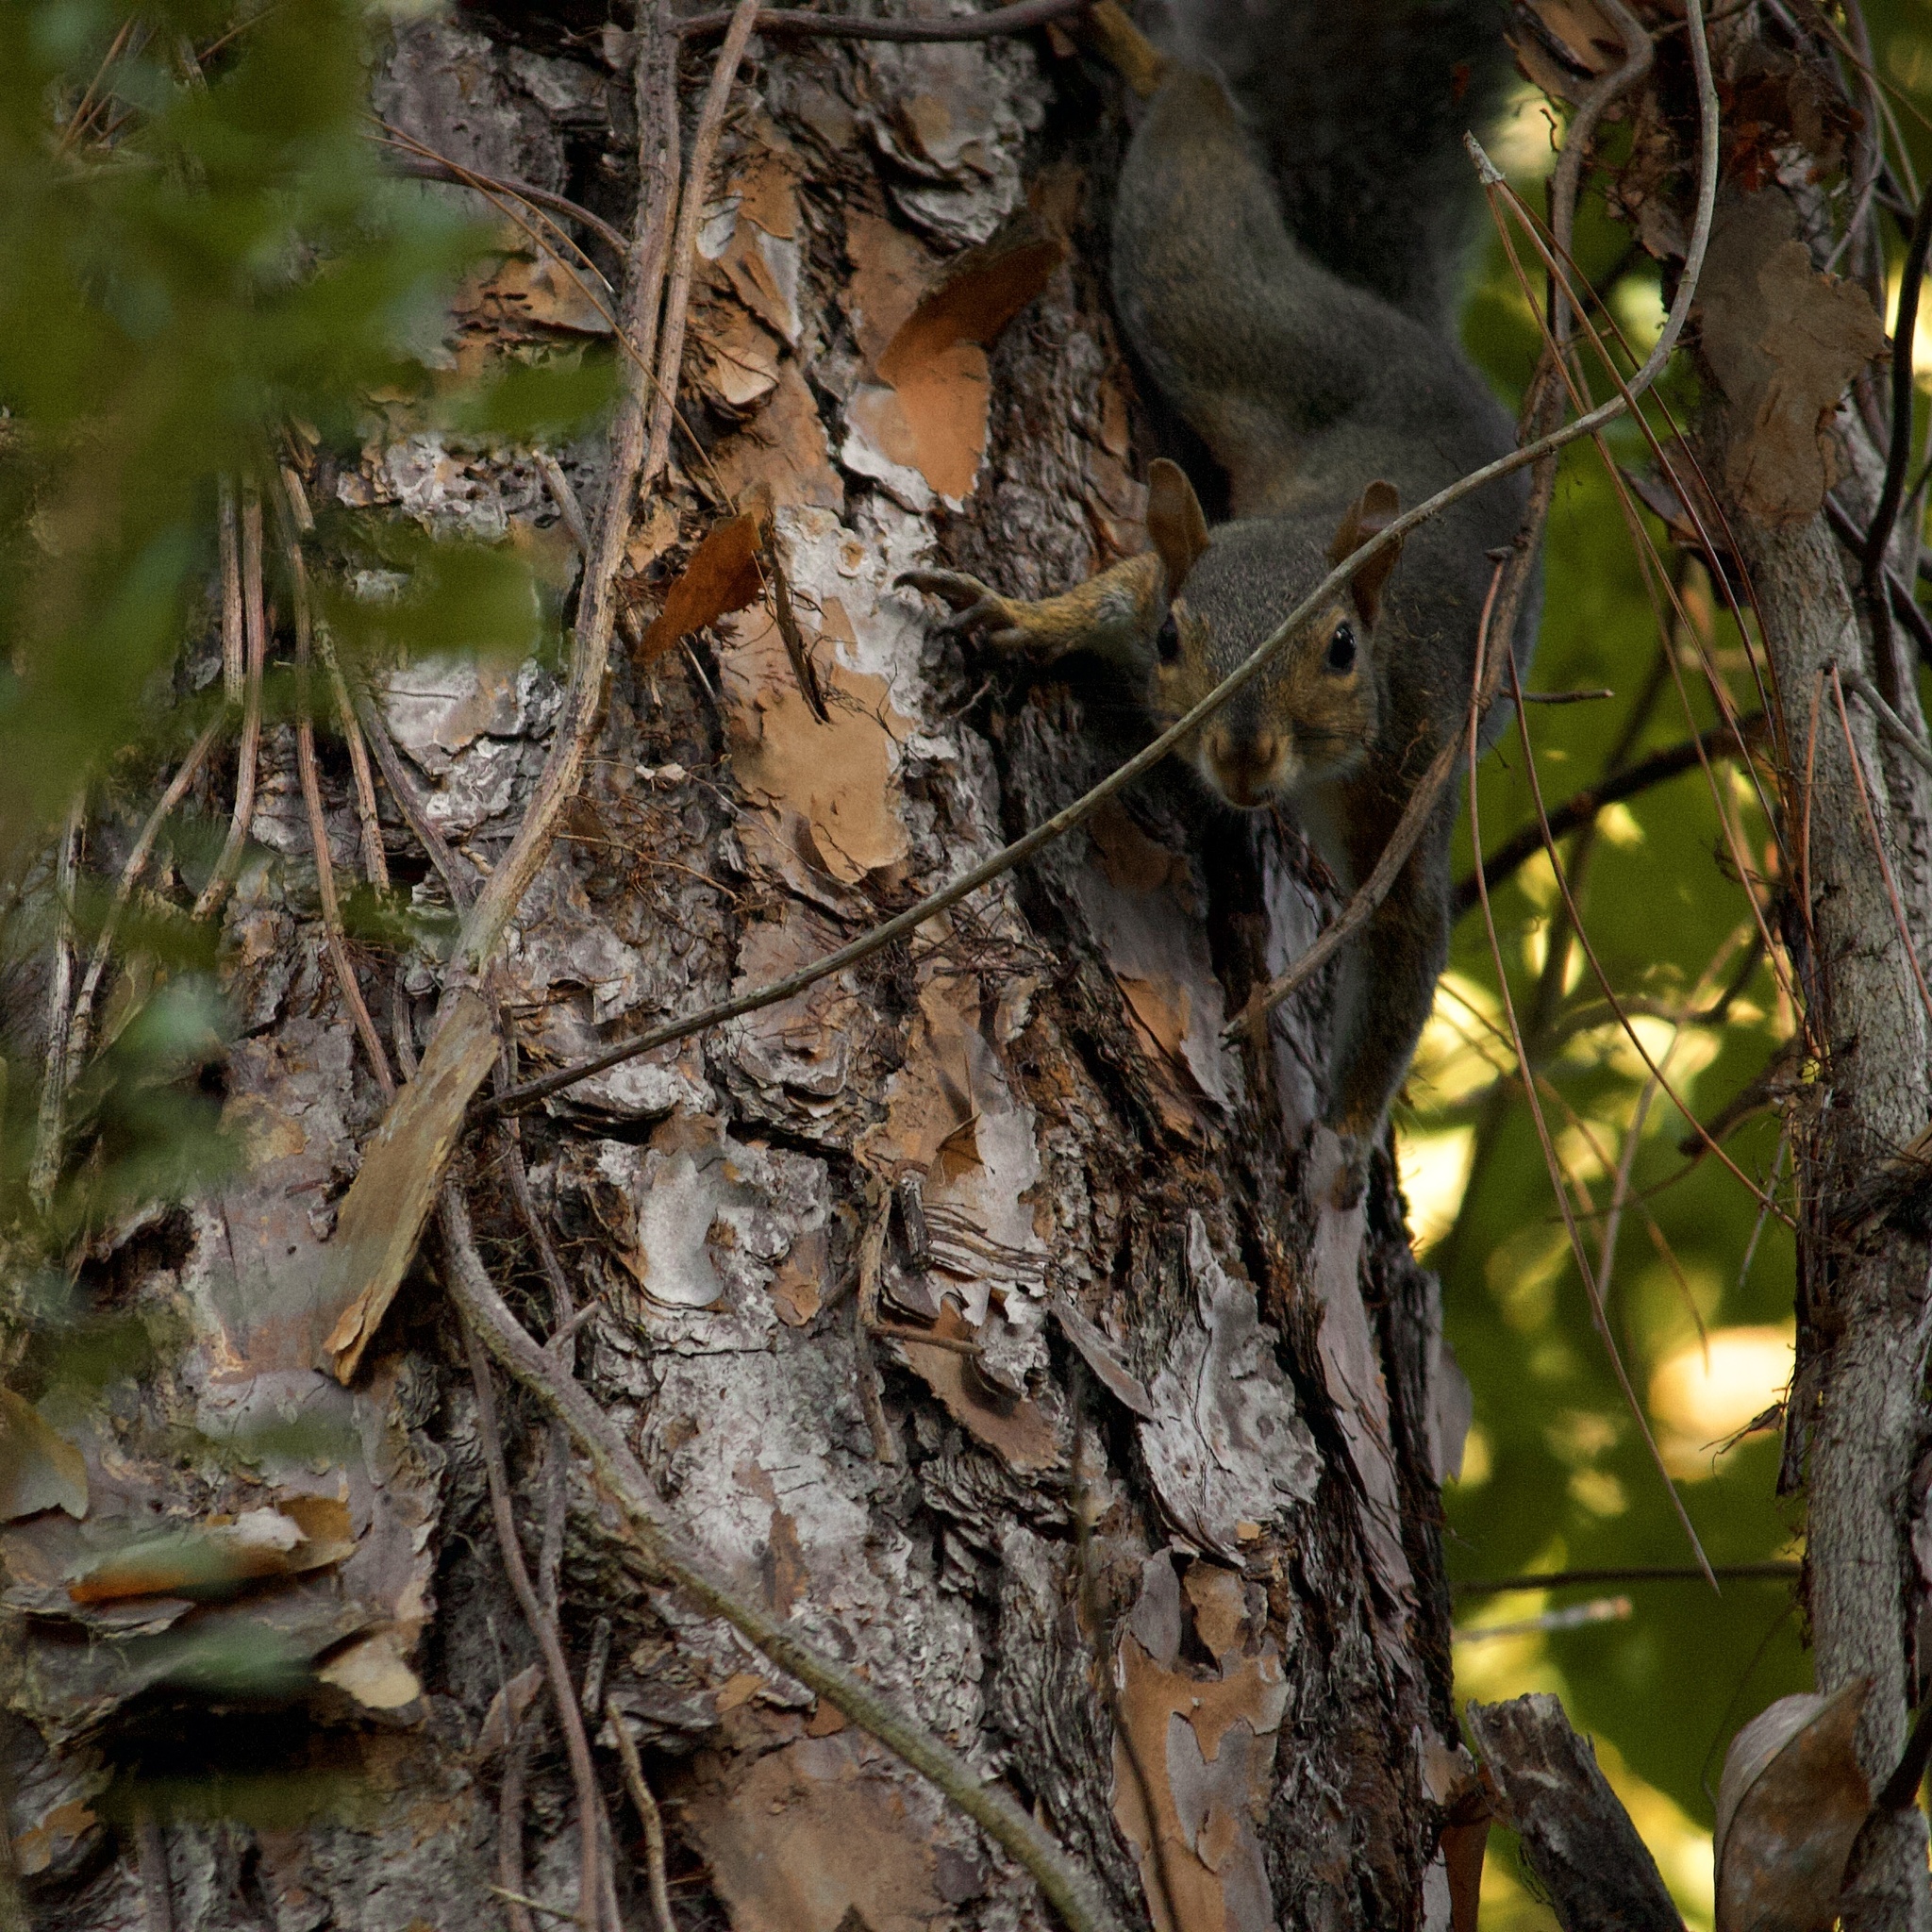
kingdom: Animalia
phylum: Chordata
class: Mammalia
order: Rodentia
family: Sciuridae
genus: Sciurus
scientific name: Sciurus carolinensis
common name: Eastern gray squirrel
